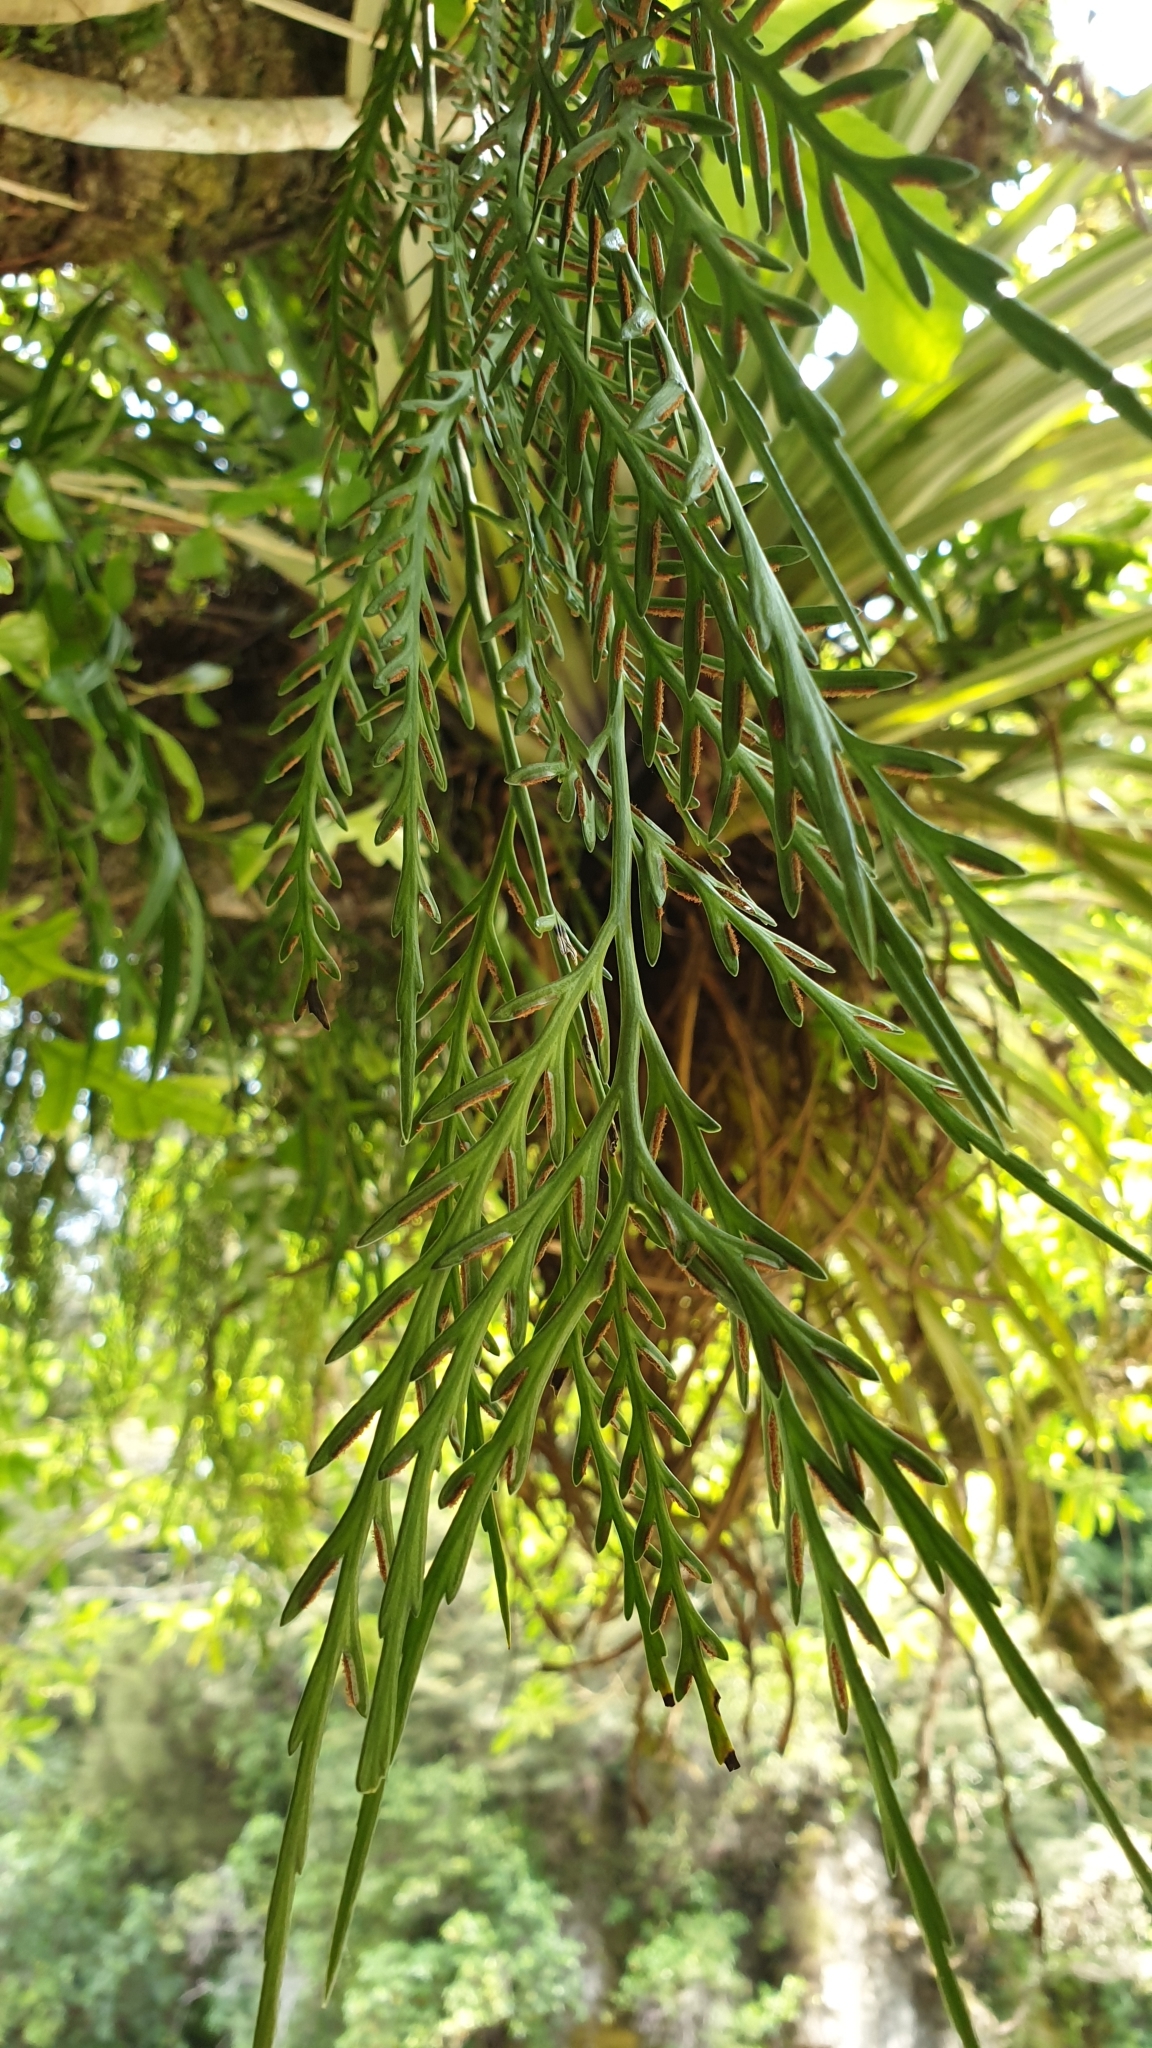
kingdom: Plantae
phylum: Tracheophyta
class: Polypodiopsida
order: Polypodiales
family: Aspleniaceae
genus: Asplenium
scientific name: Asplenium flaccidum
